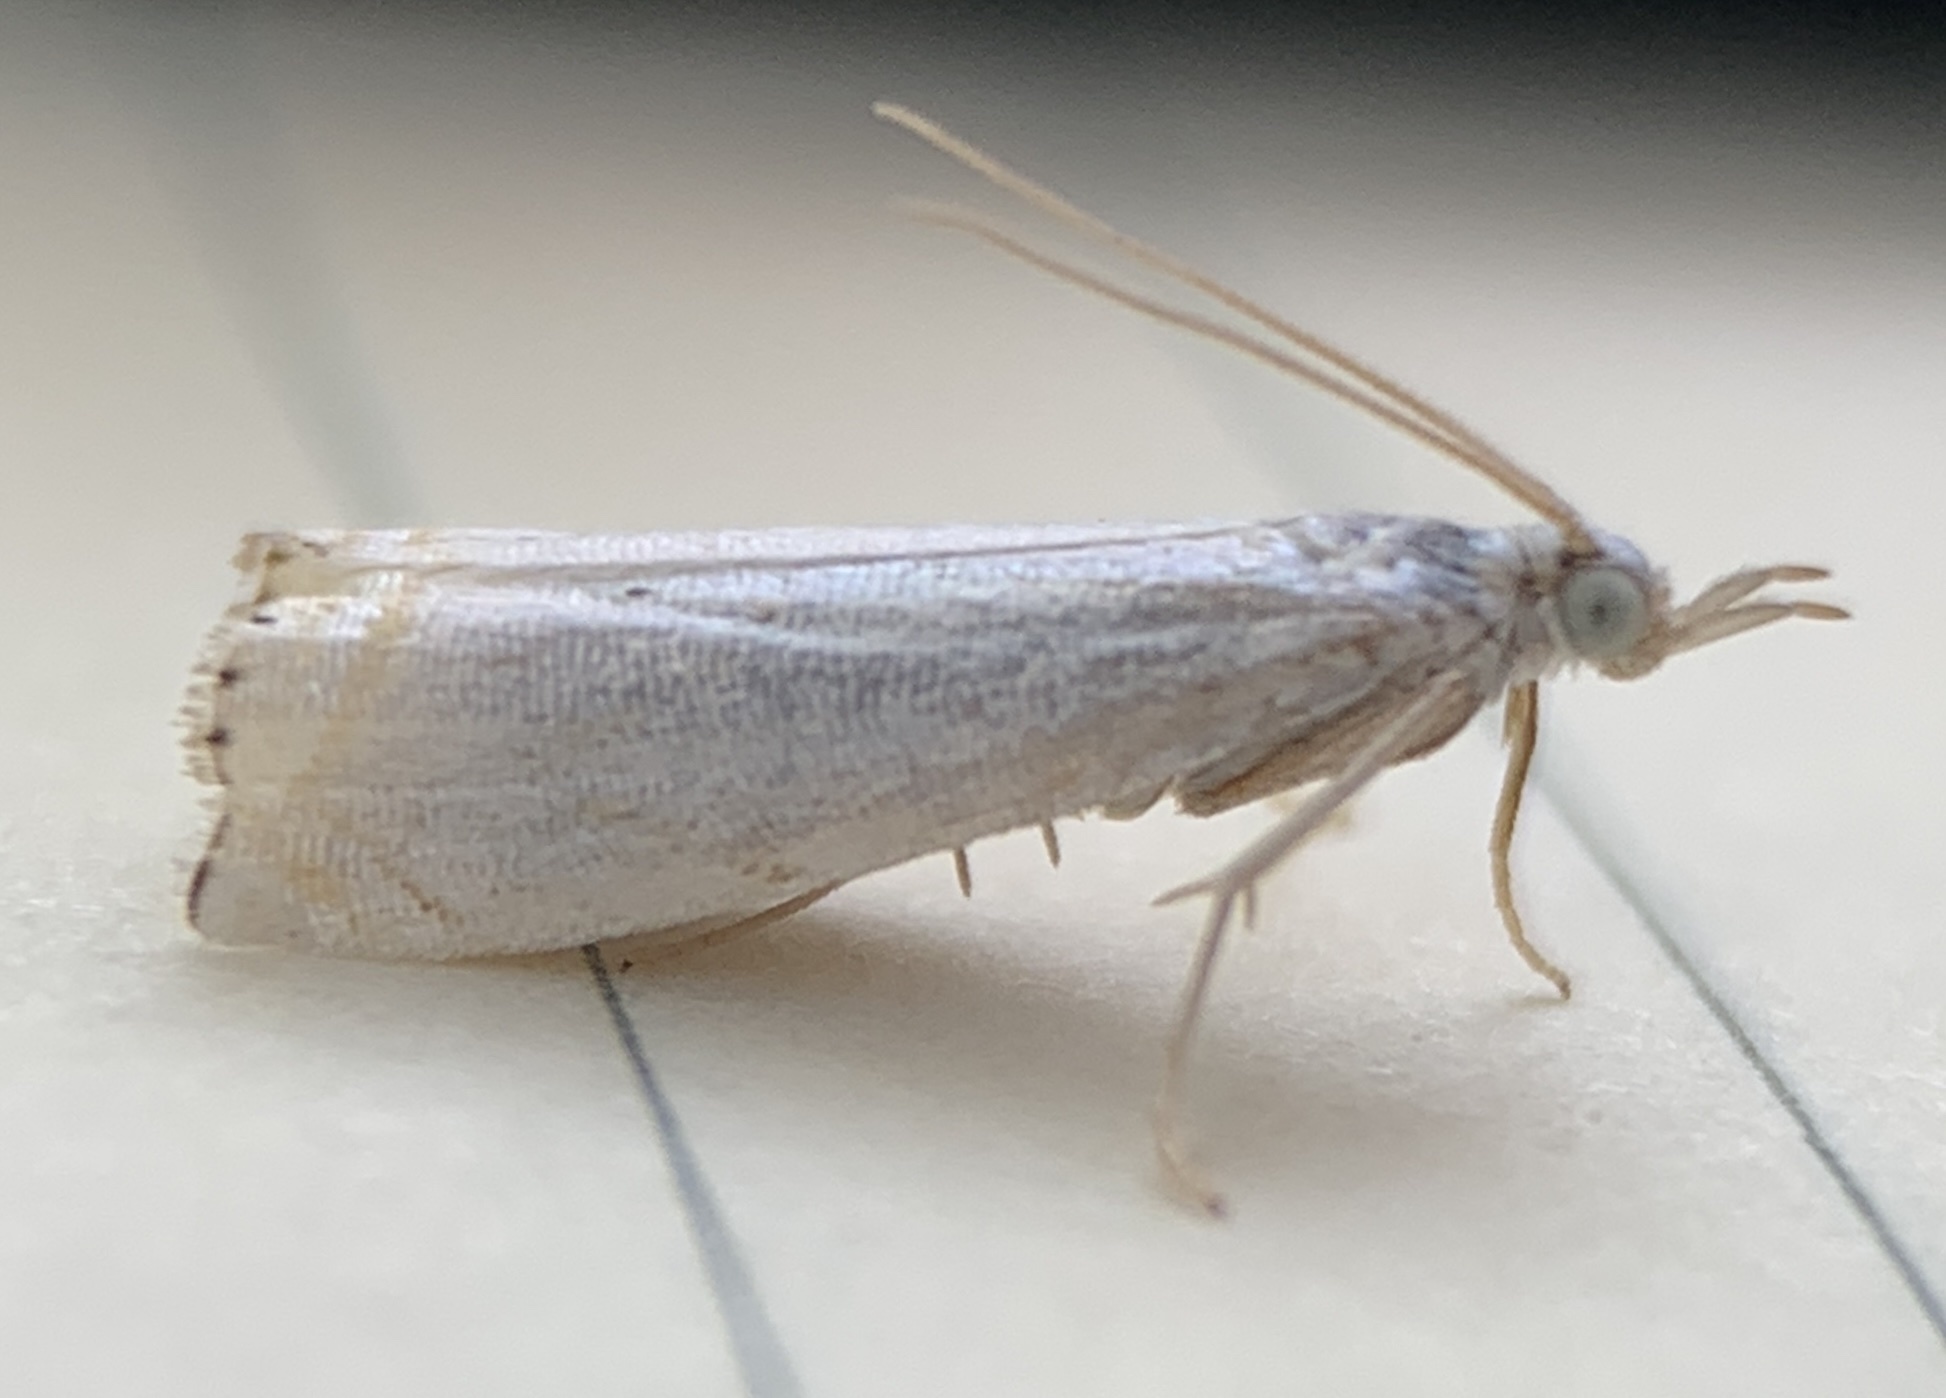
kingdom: Animalia
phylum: Arthropoda
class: Insecta
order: Lepidoptera
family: Crambidae
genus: Crambus
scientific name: Crambus albellus
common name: Small white grass-veneer
